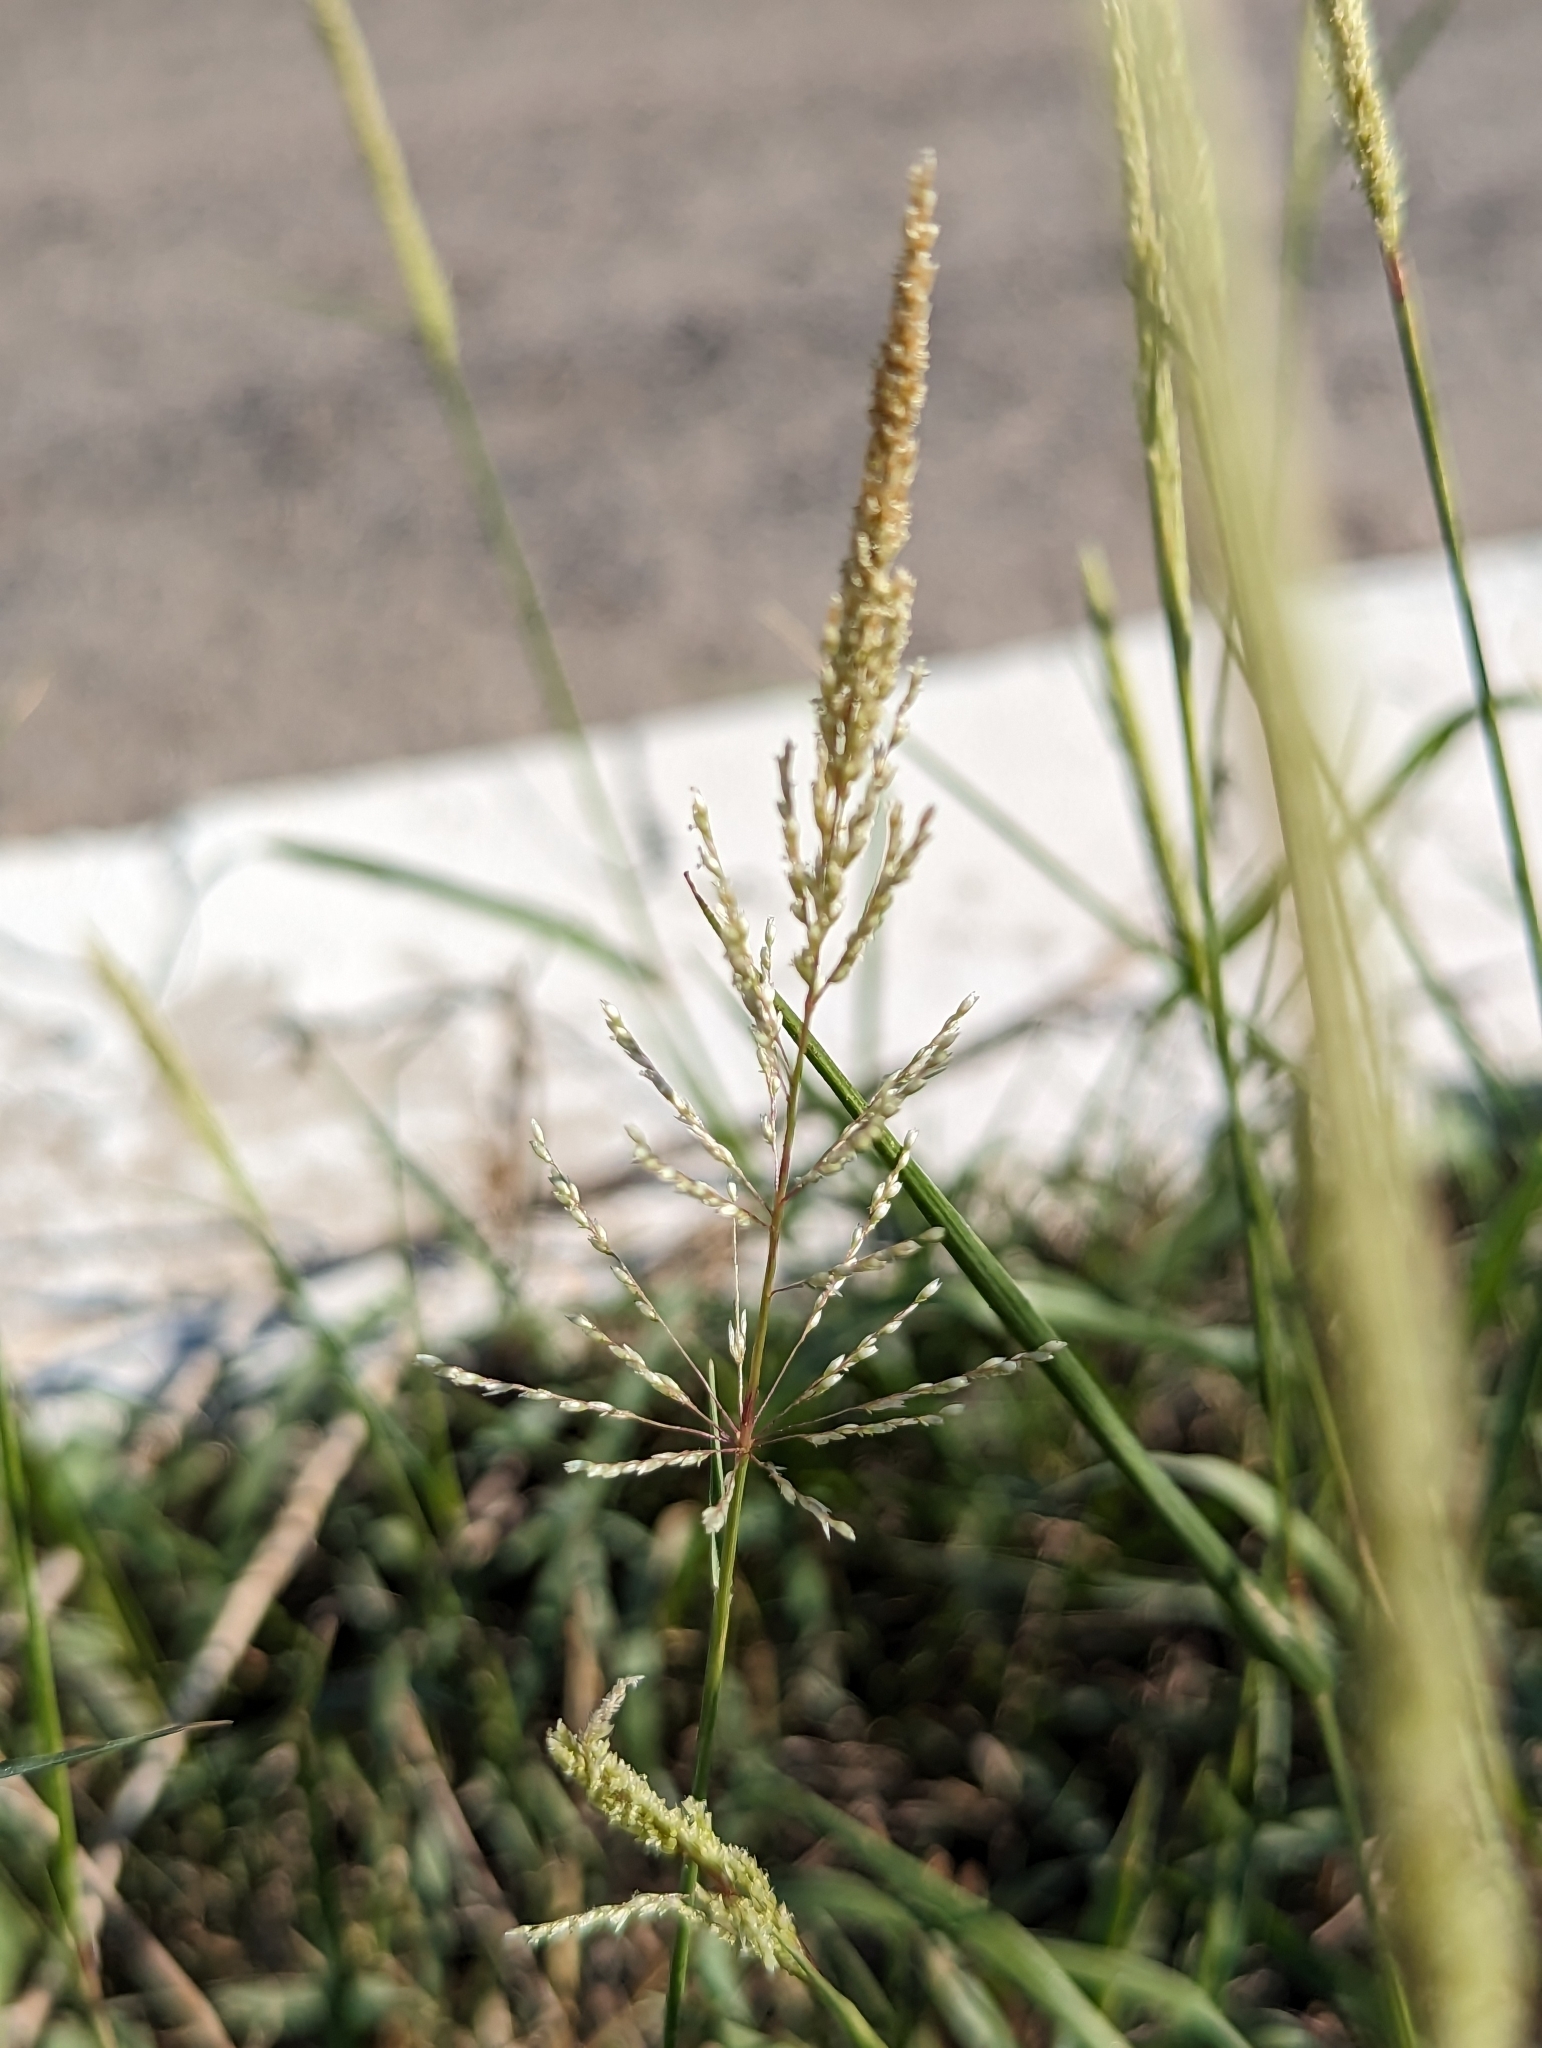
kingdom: Plantae
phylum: Tracheophyta
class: Liliopsida
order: Poales
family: Poaceae
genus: Sporobolus
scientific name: Sporobolus pyramidatus
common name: Whorled dropseed
